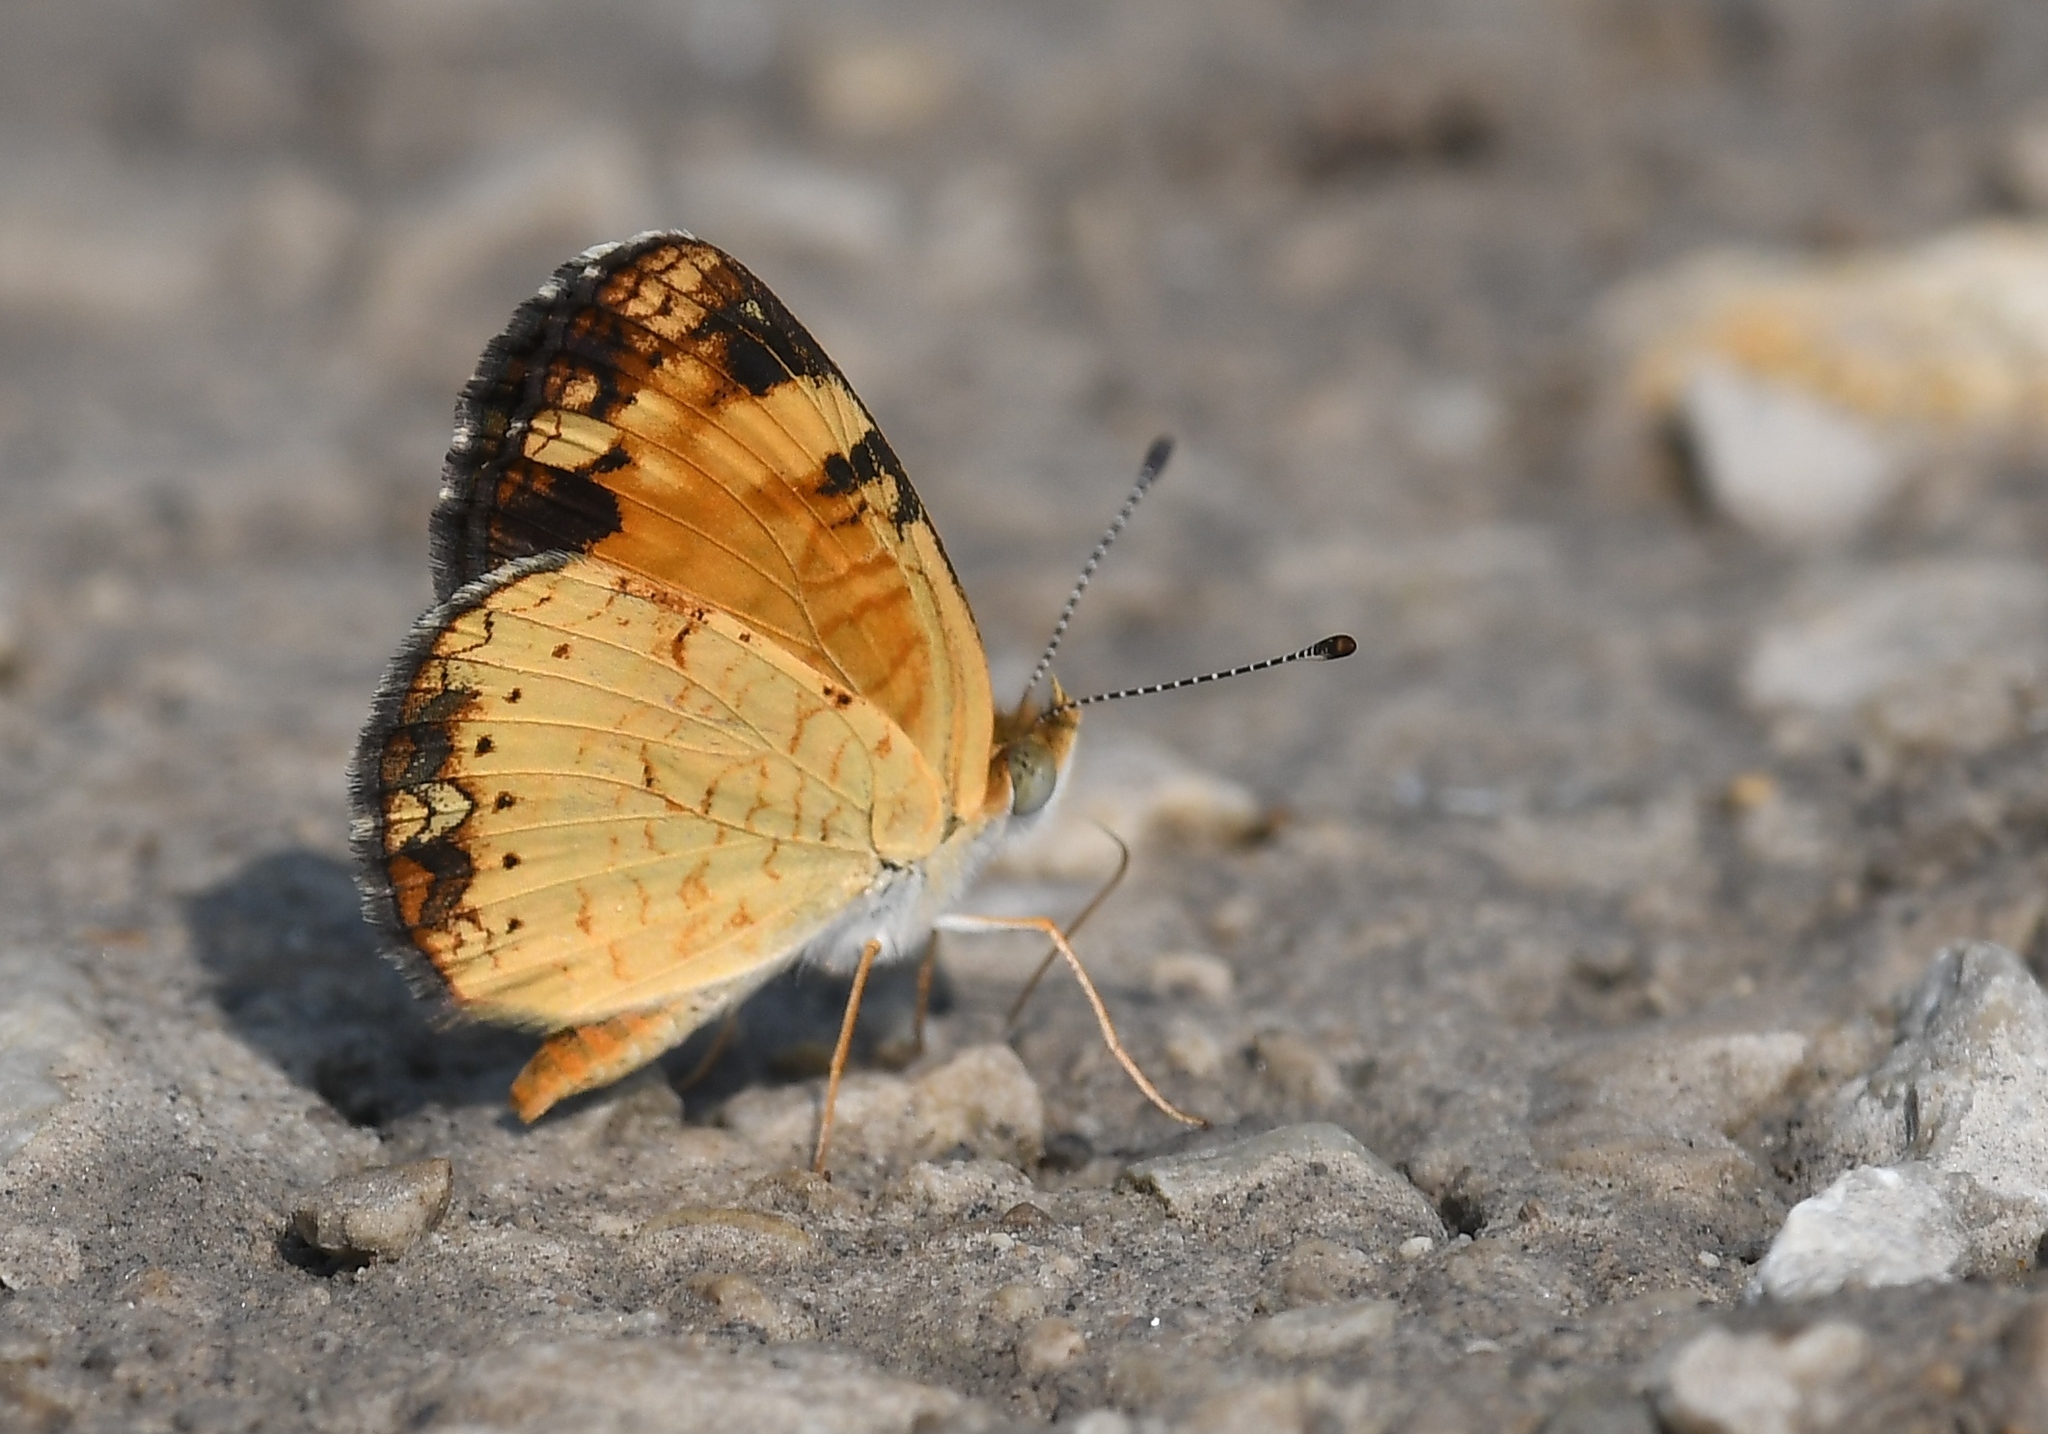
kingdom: Animalia
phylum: Arthropoda
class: Insecta
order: Lepidoptera
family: Nymphalidae
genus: Phyciodes
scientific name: Phyciodes tharos
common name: Pearl crescent
